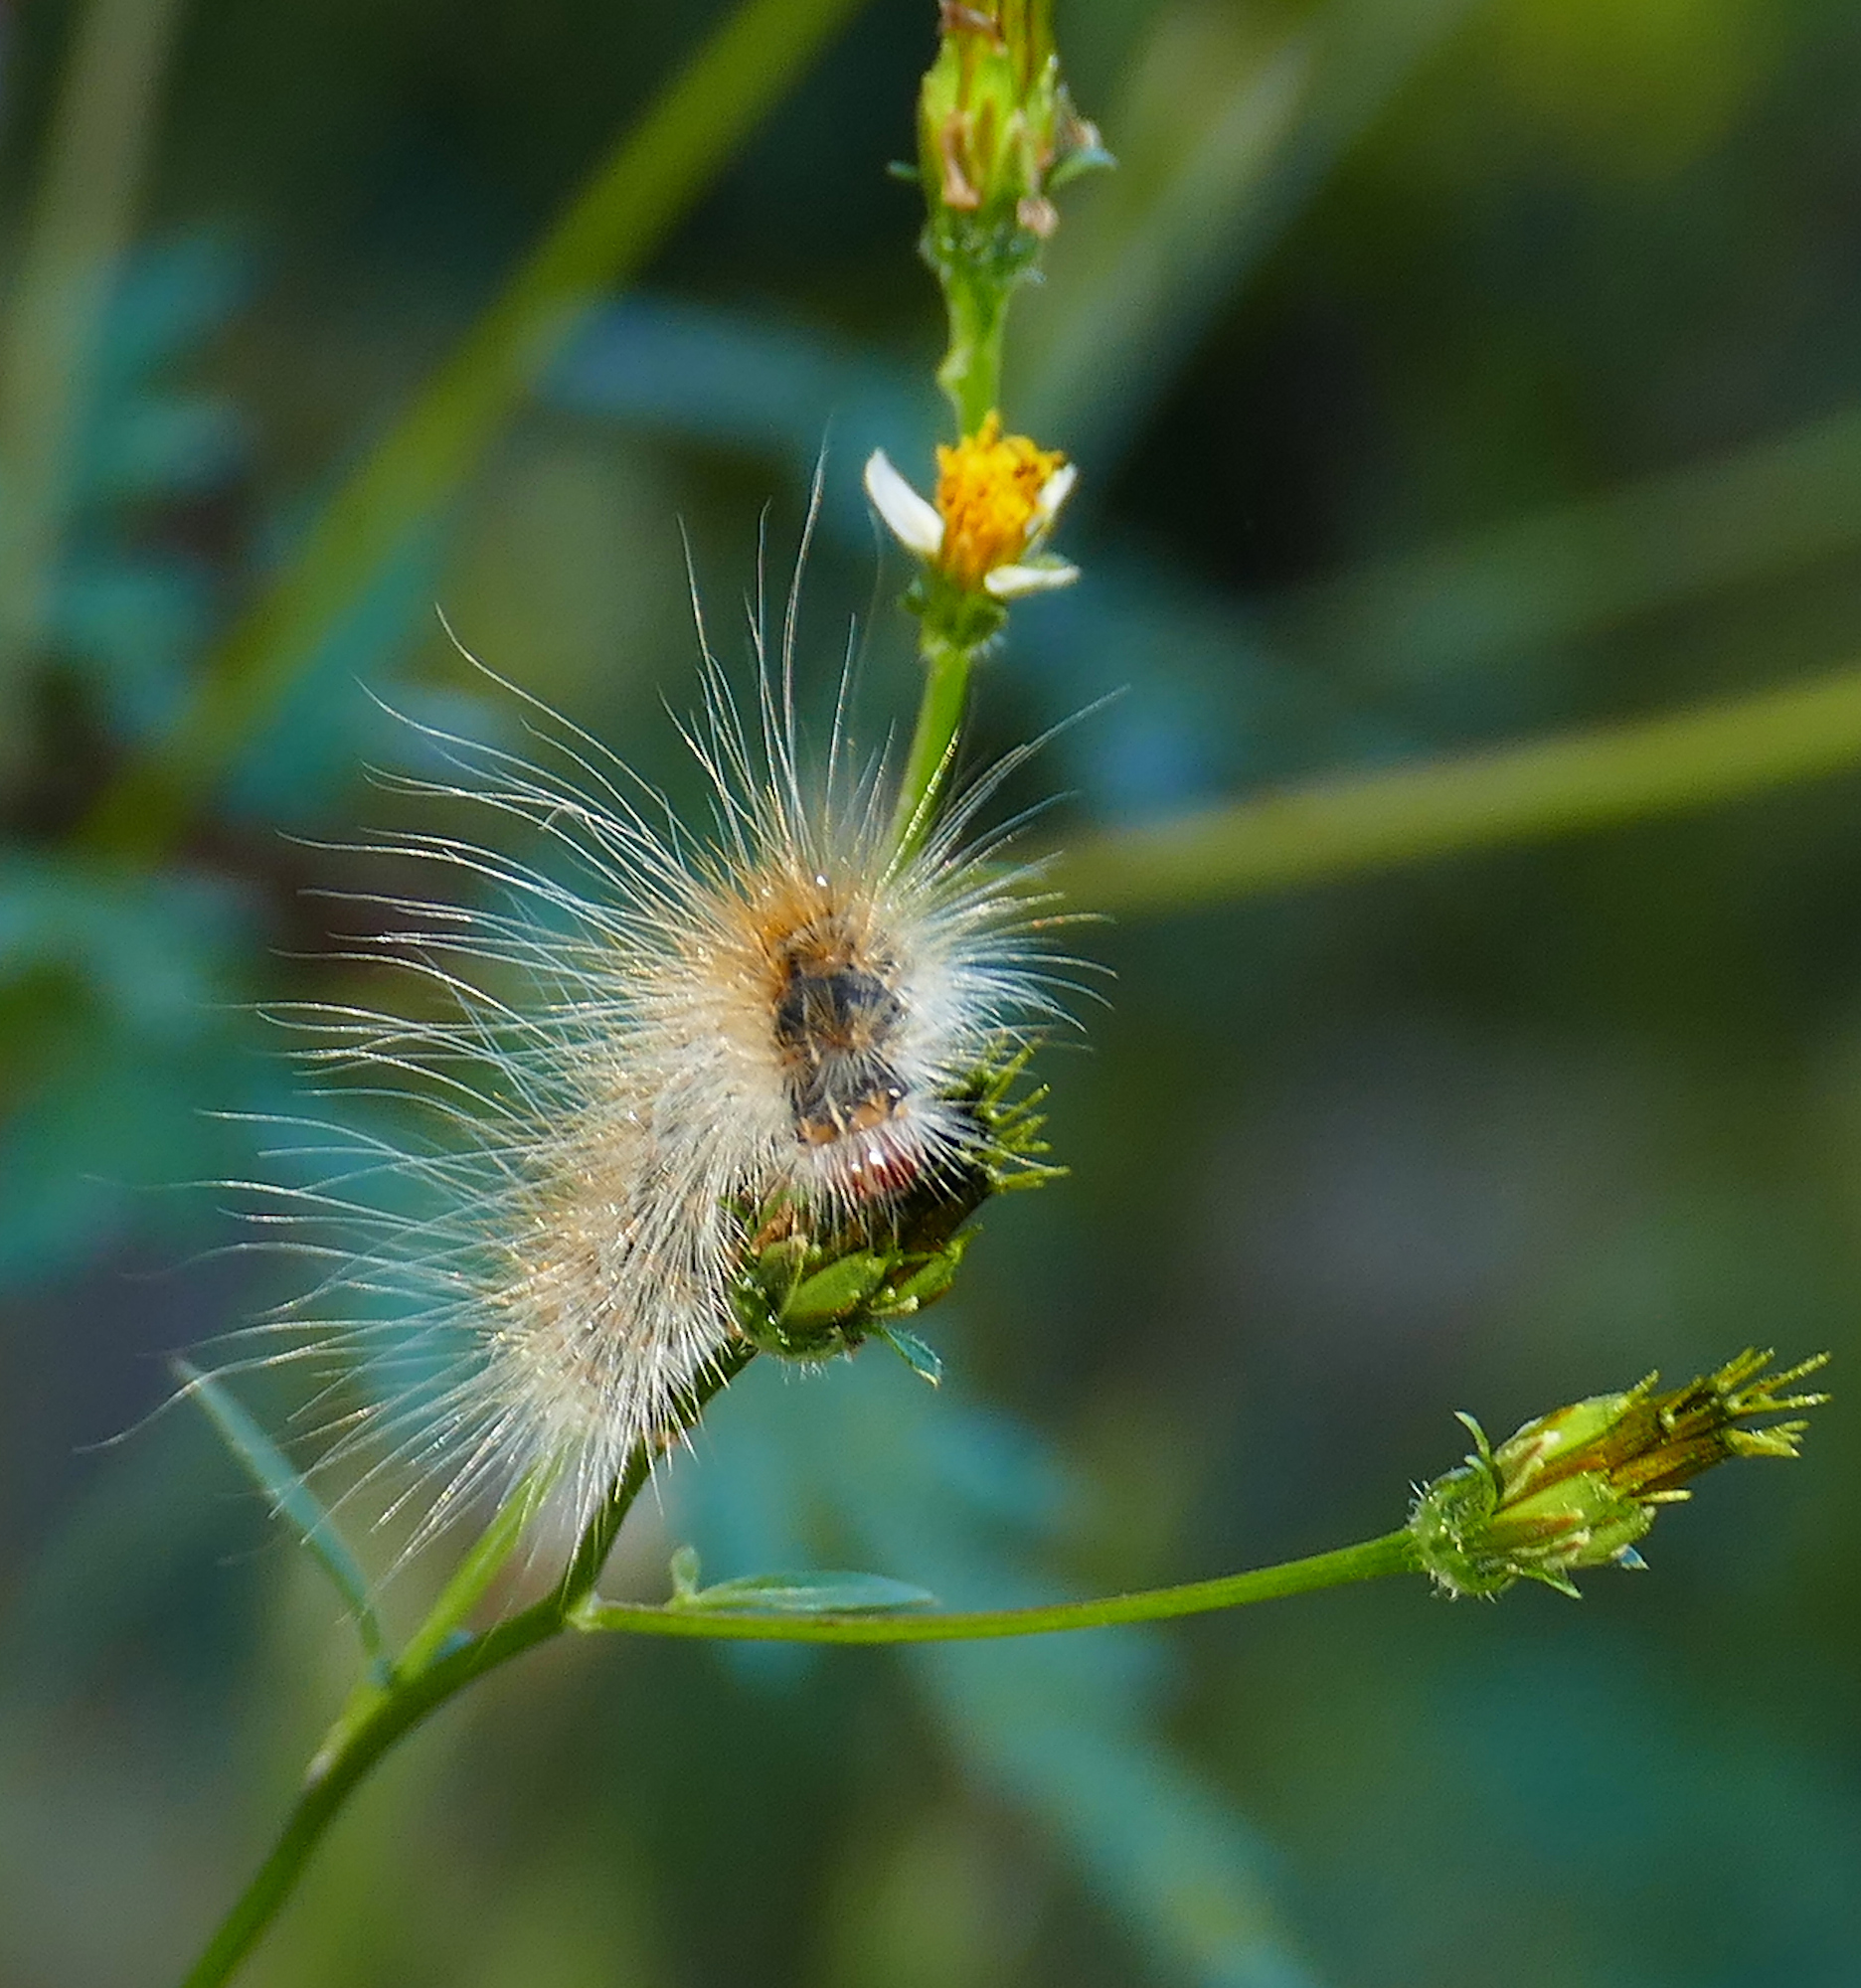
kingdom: Animalia
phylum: Arthropoda
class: Insecta
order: Lepidoptera
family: Erebidae
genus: Hyphantria
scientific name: Hyphantria cunea
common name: American white moth
